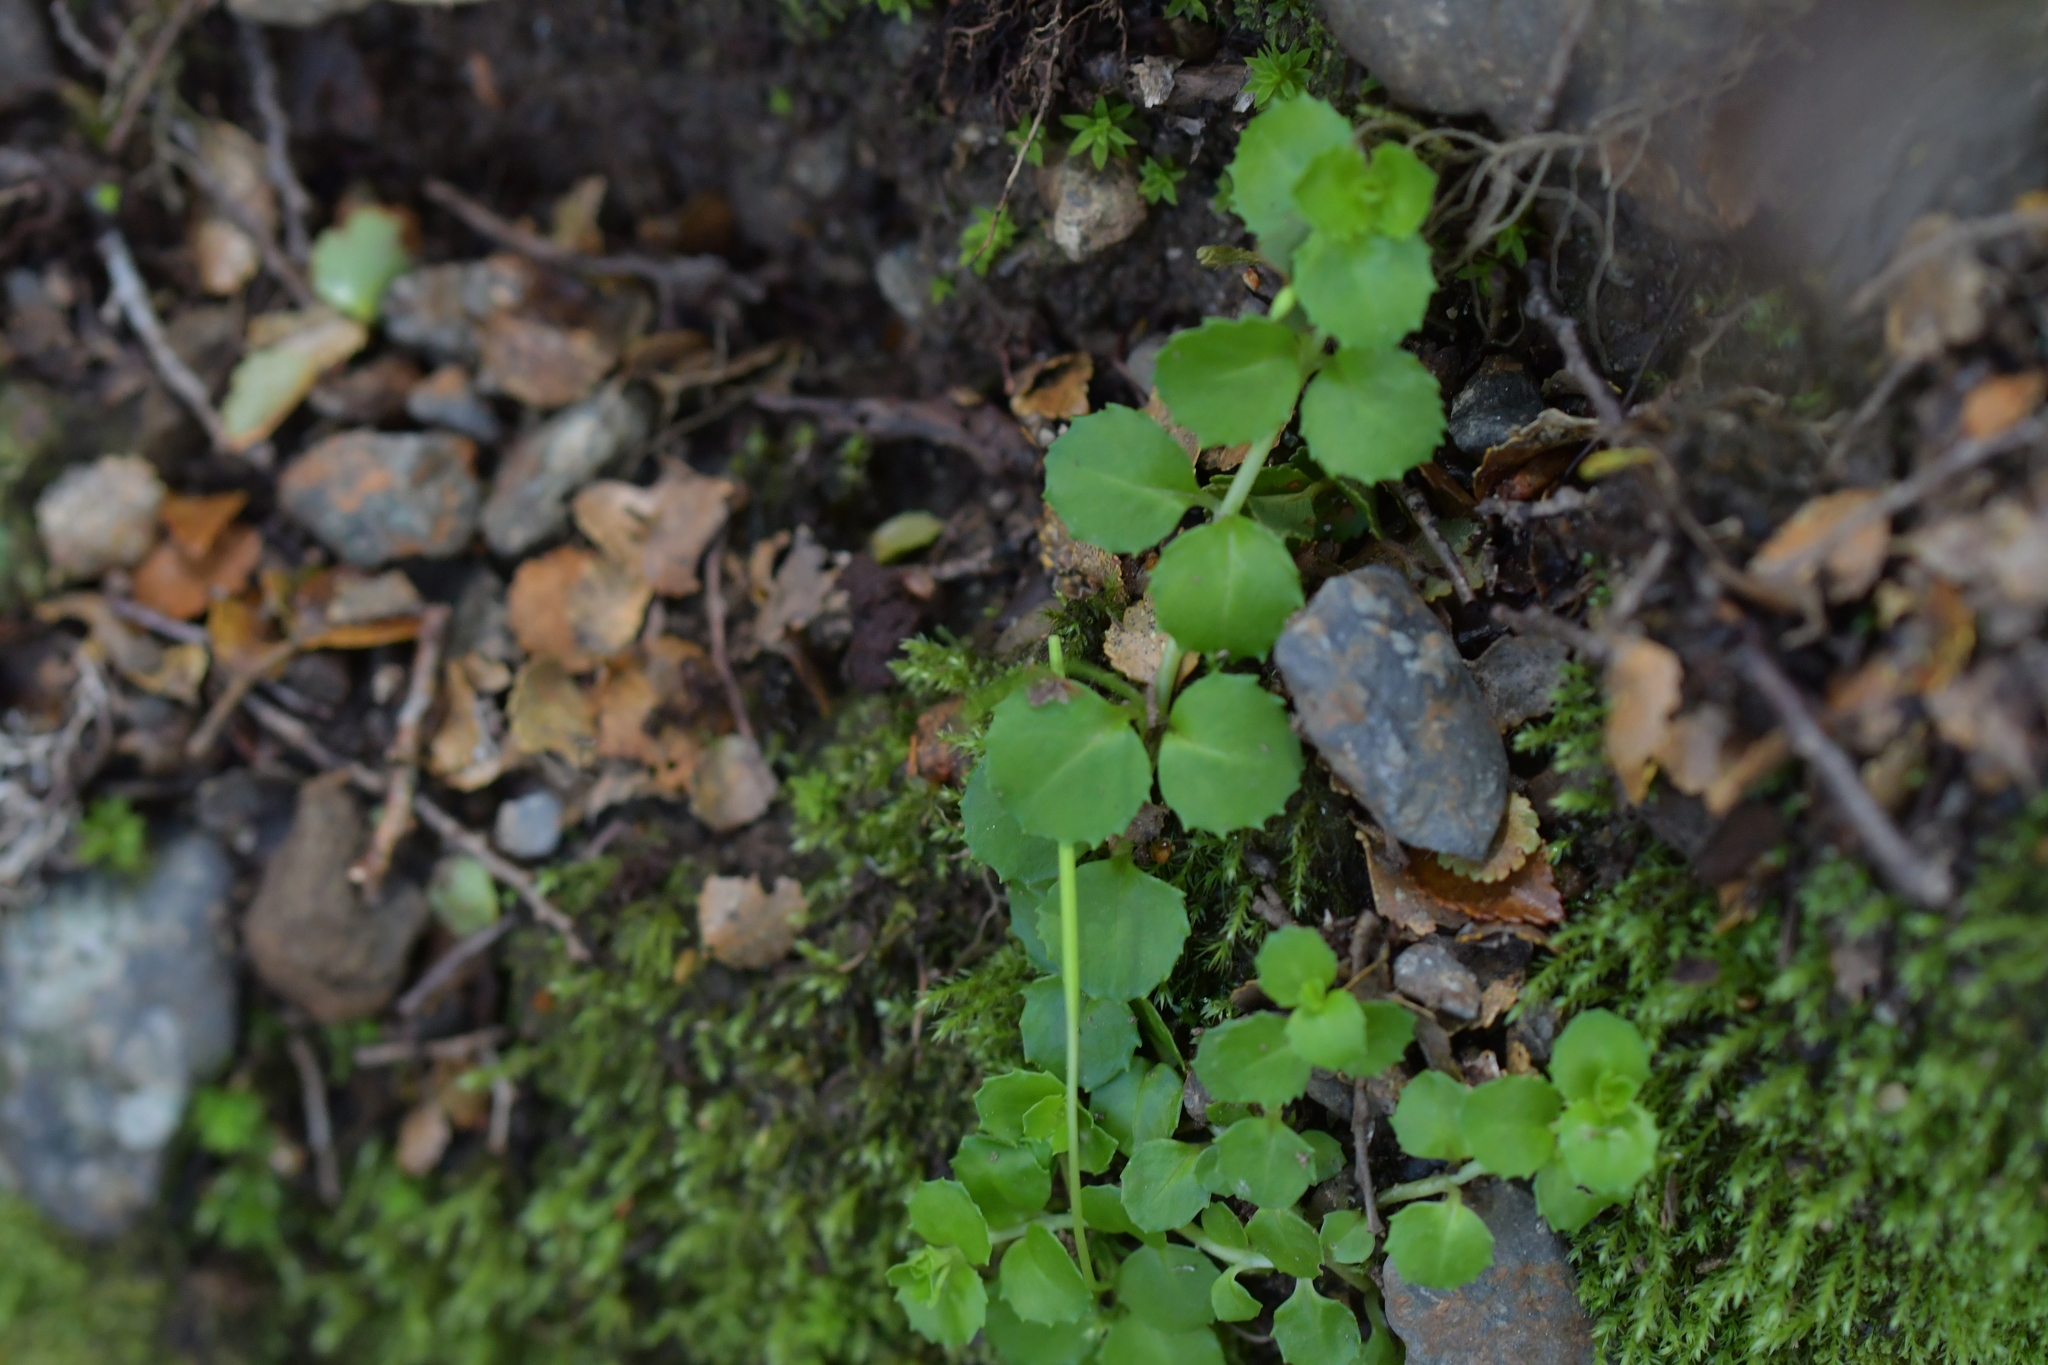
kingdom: Plantae
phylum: Tracheophyta
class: Magnoliopsida
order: Myrtales
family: Onagraceae
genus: Epilobium
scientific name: Epilobium pedunculare
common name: Rockery willowherb
